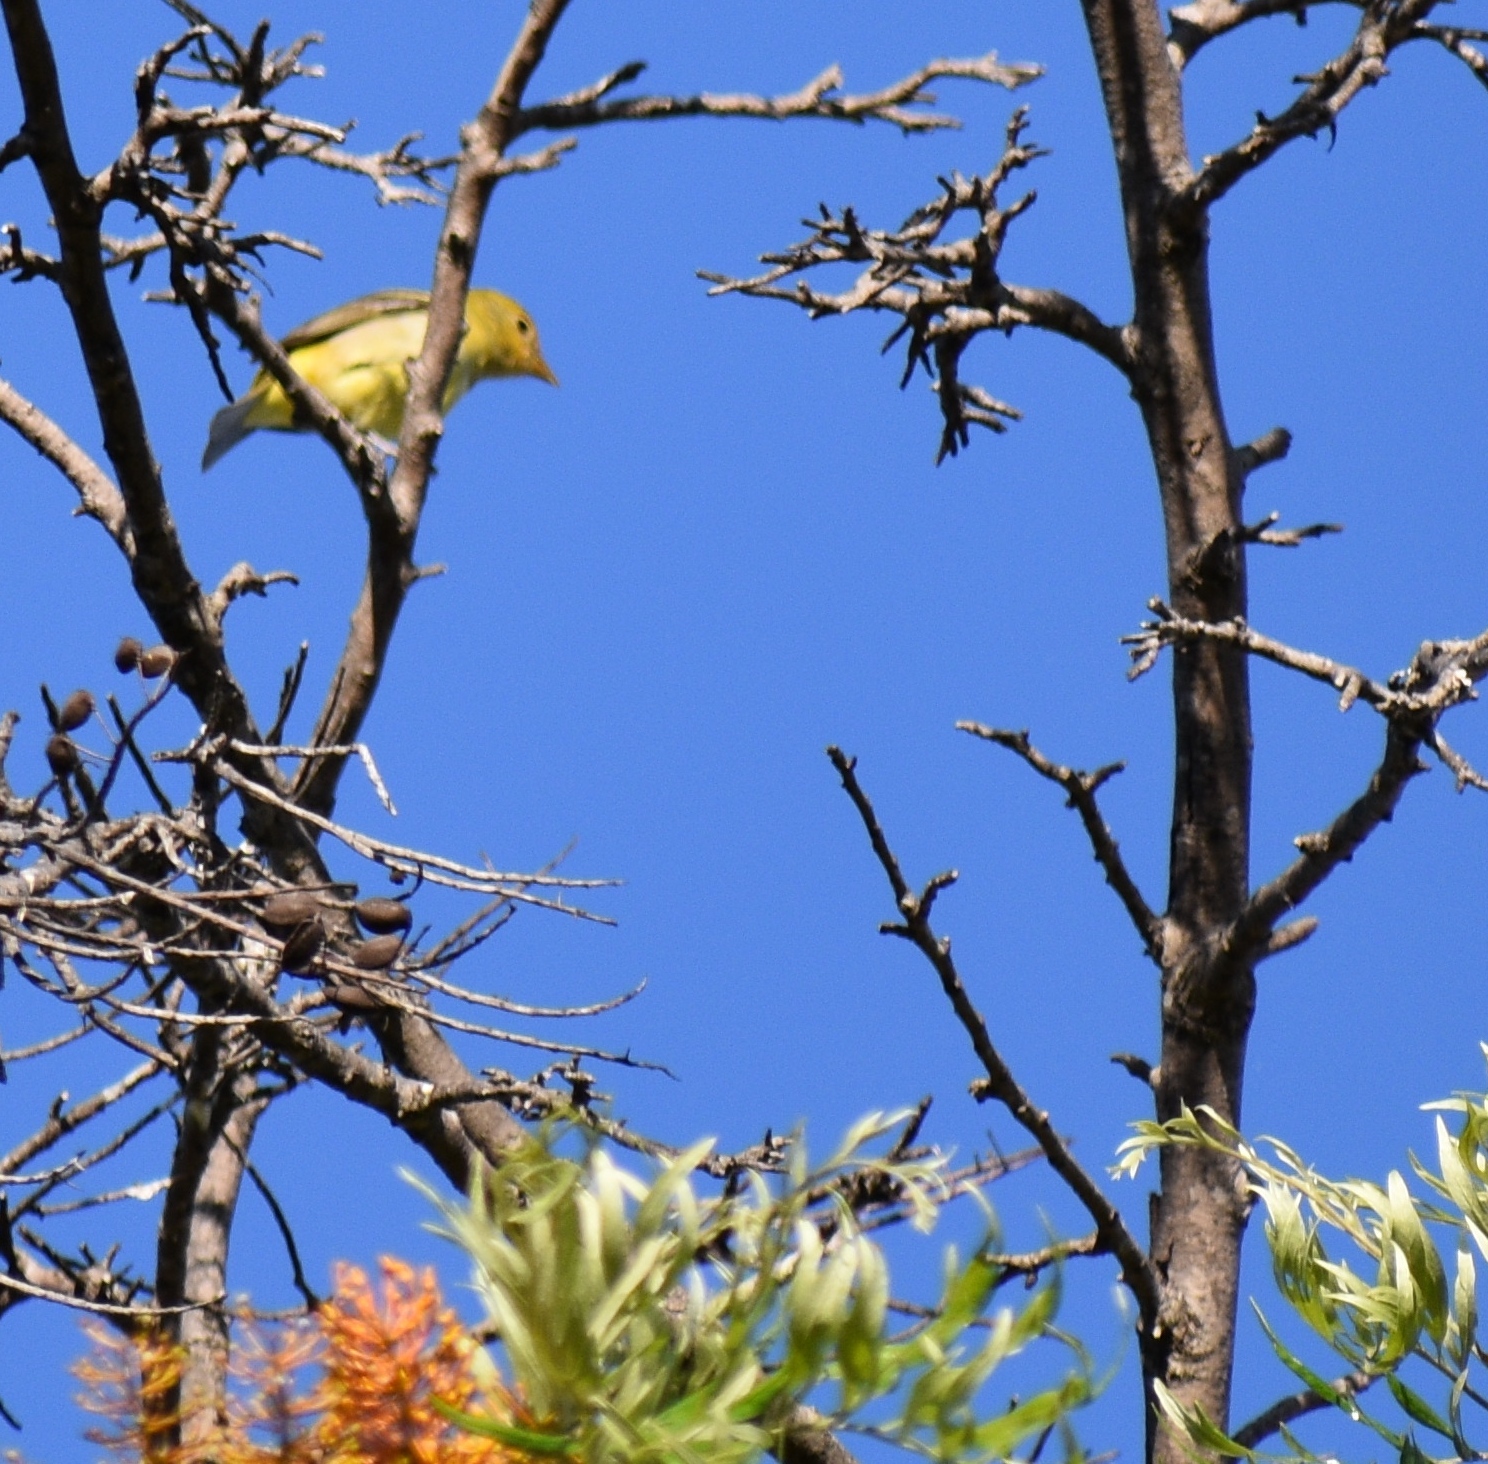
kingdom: Animalia
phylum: Chordata
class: Aves
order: Passeriformes
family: Cardinalidae
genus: Piranga
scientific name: Piranga ludoviciana
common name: Western tanager
